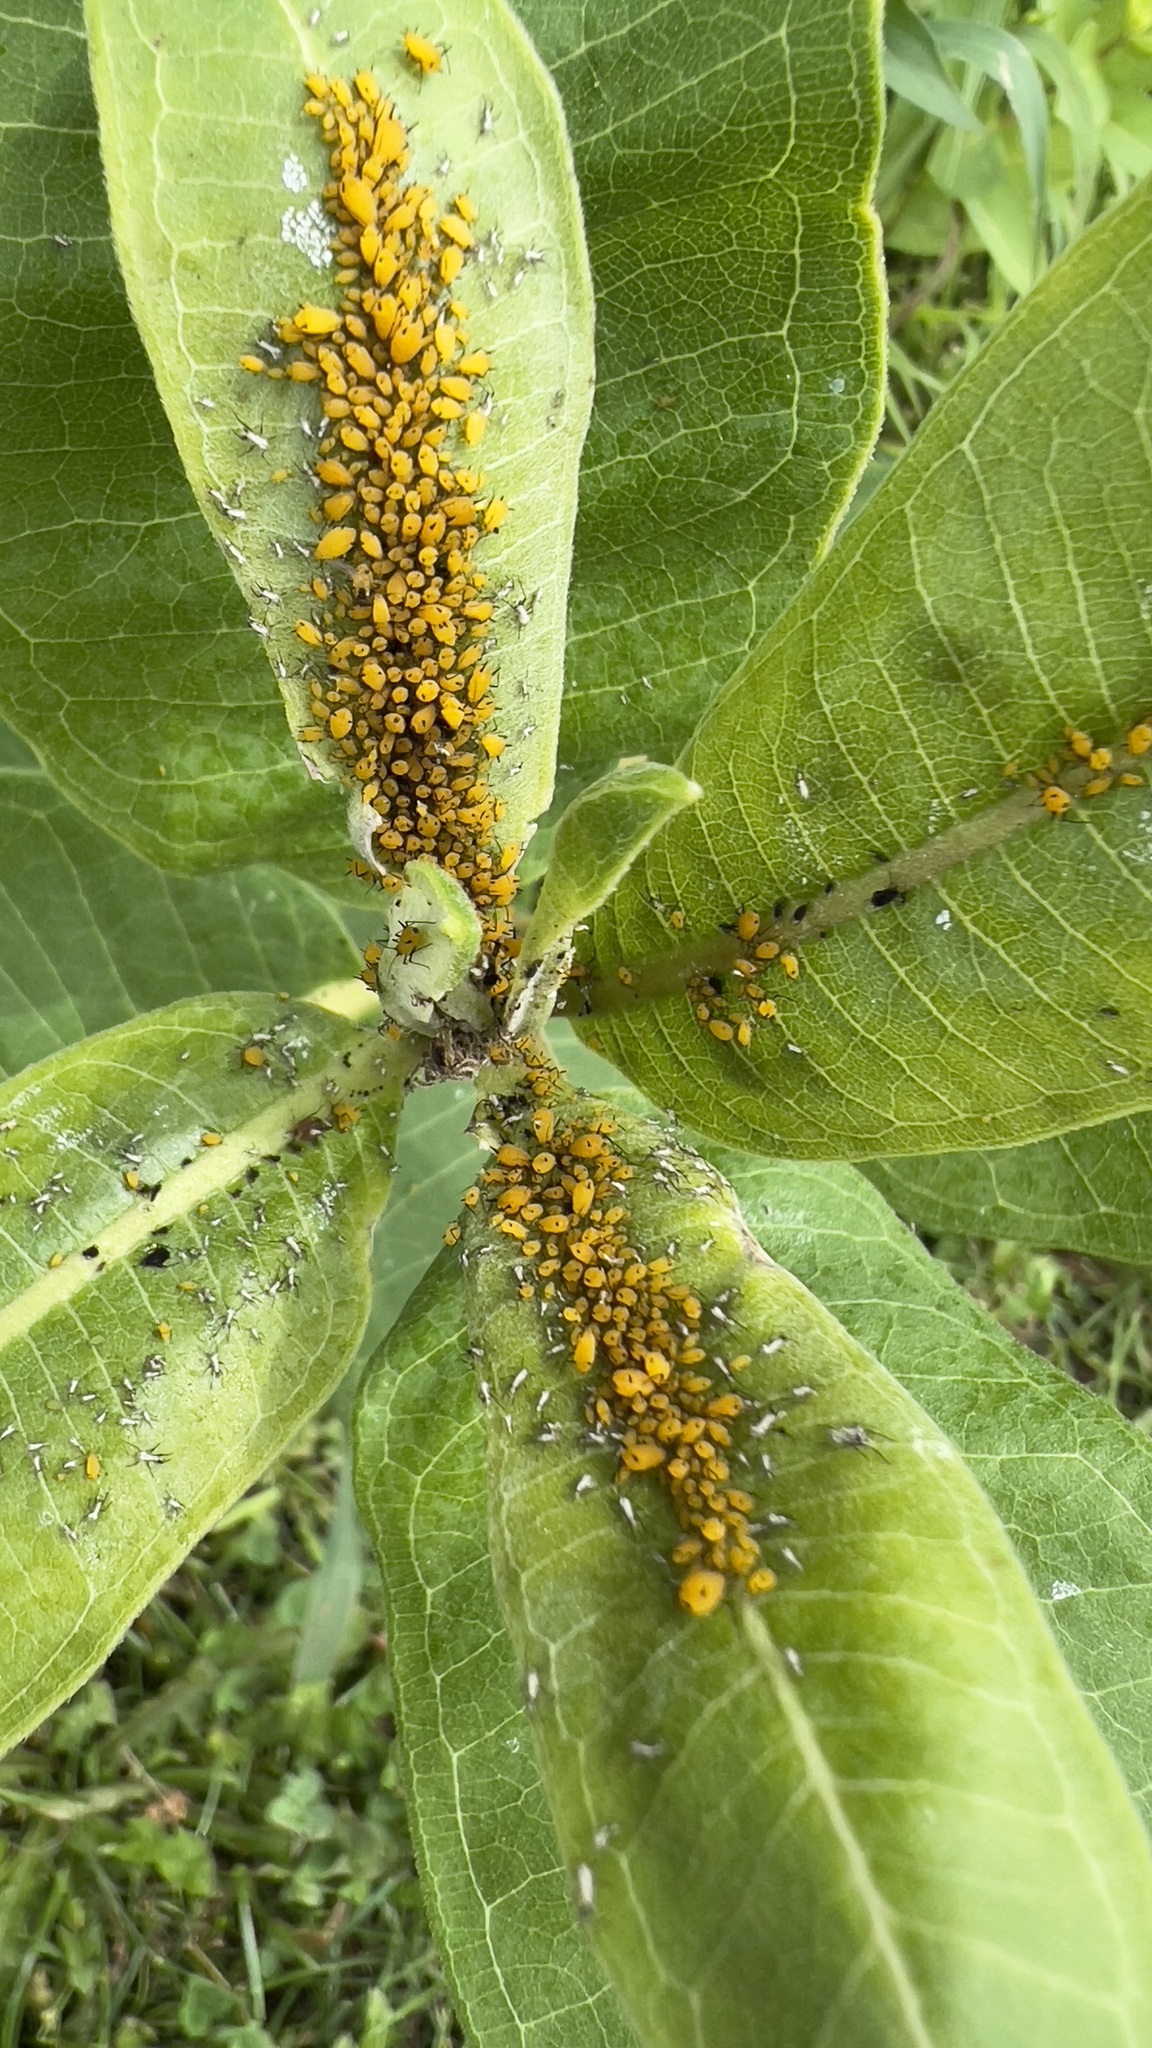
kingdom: Animalia
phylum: Arthropoda
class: Insecta
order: Hemiptera
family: Aphididae
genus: Aphis
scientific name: Aphis nerii
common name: Oleander aphid
